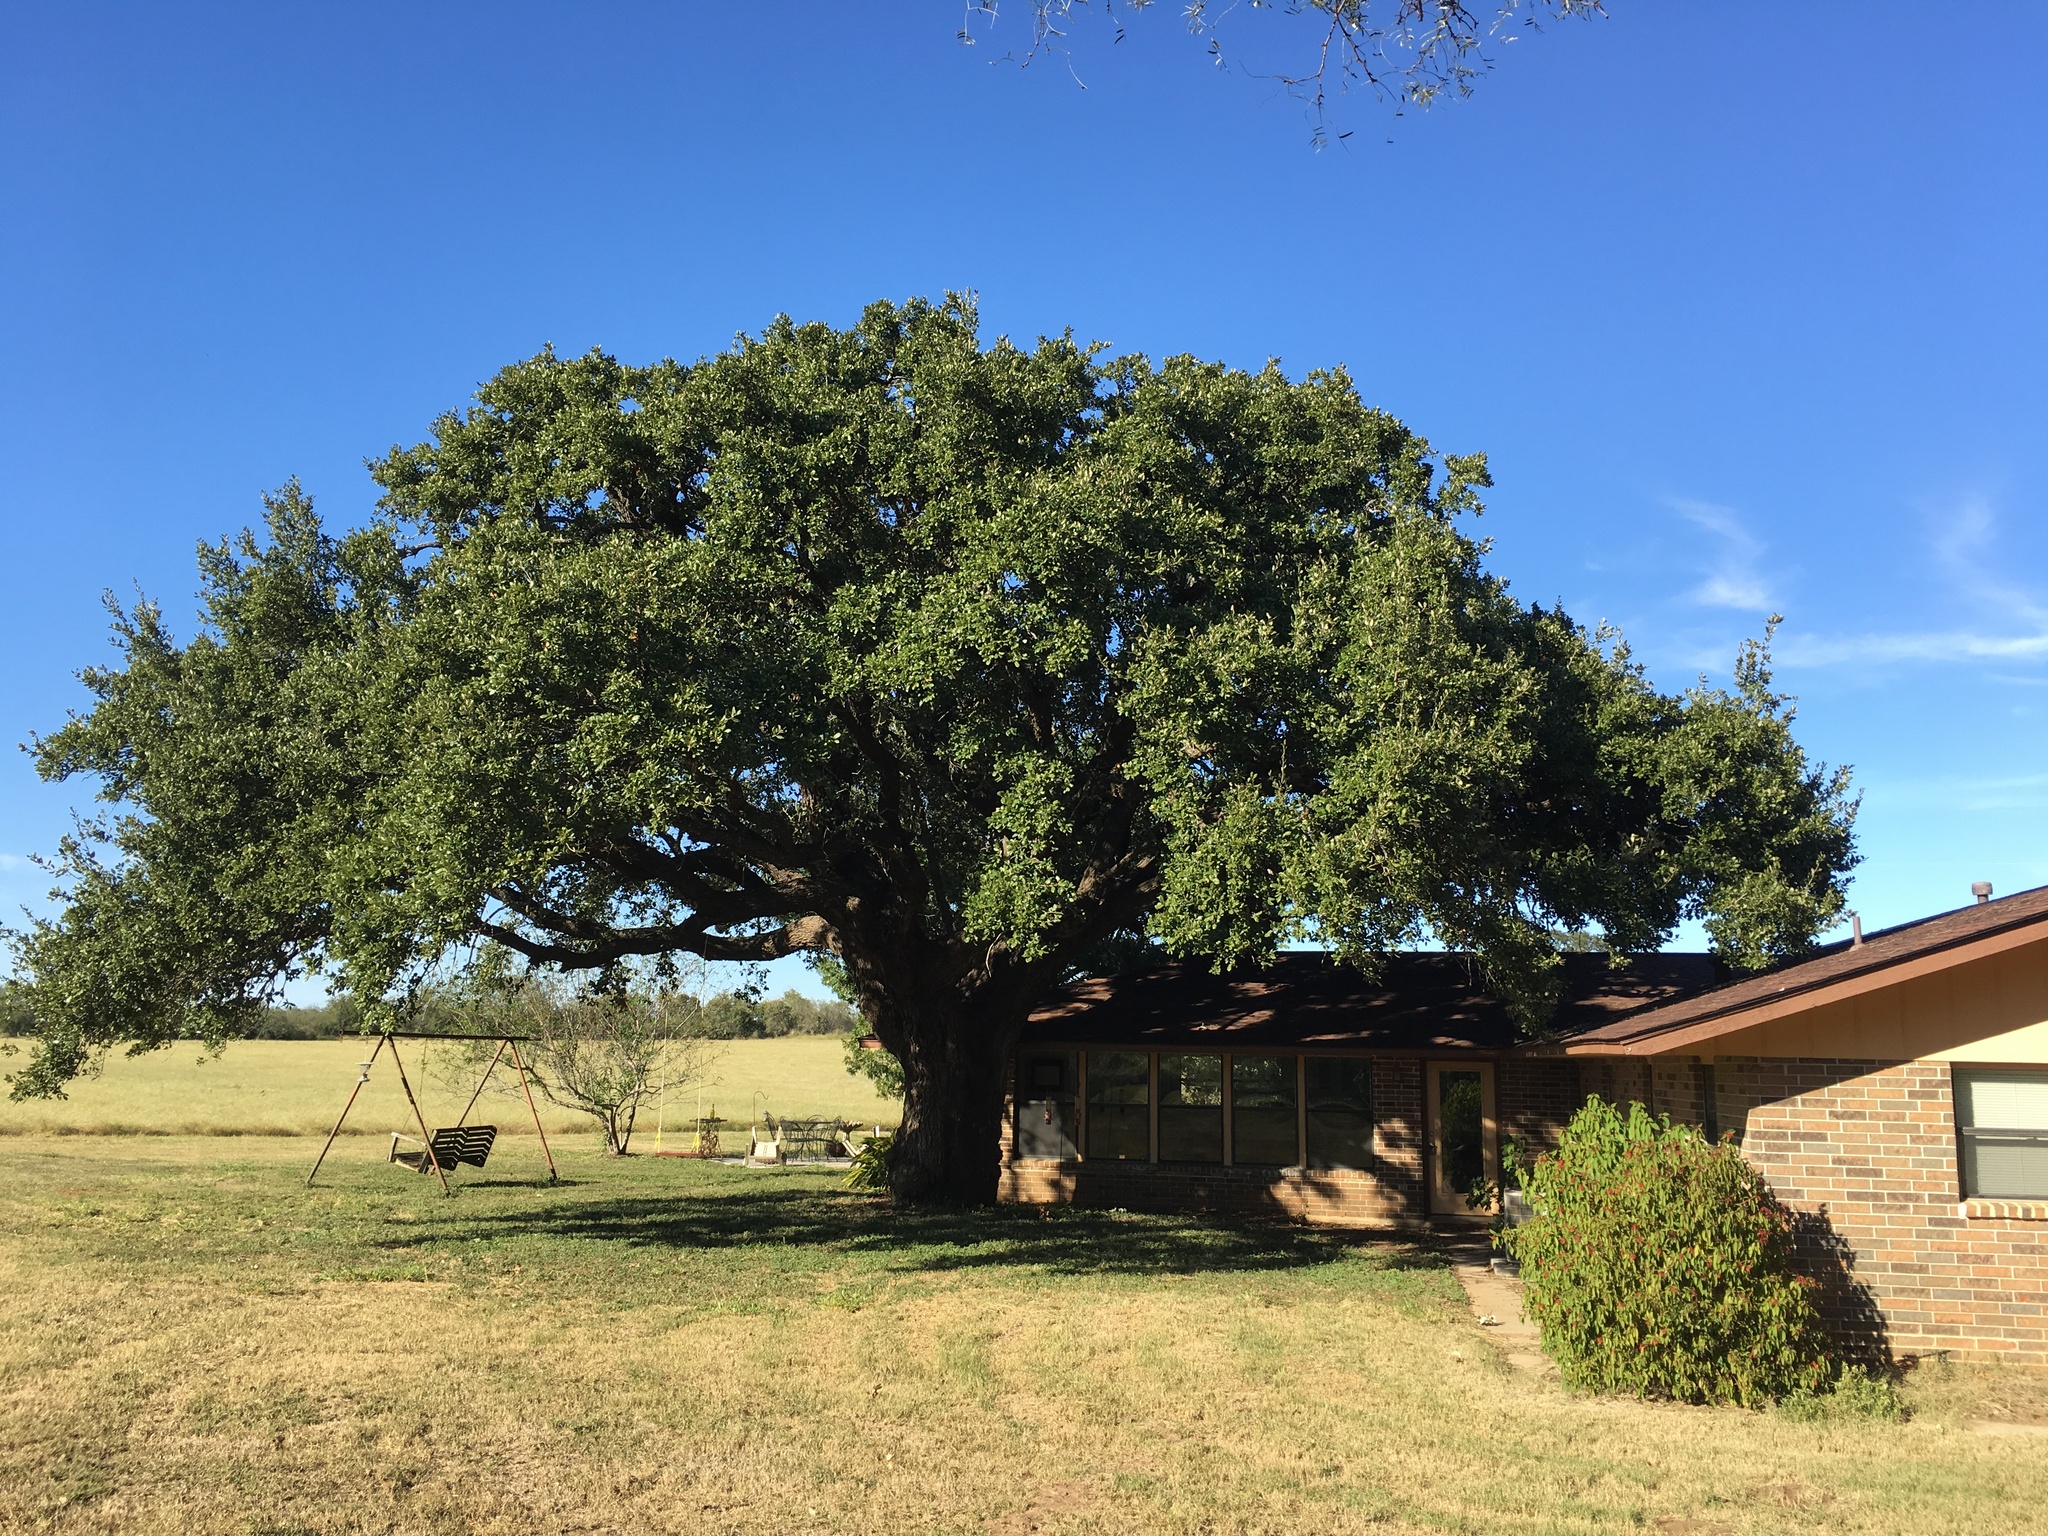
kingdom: Plantae
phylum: Tracheophyta
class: Magnoliopsida
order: Fagales
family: Fagaceae
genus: Quercus
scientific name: Quercus fusiformis
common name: Texas live oak
